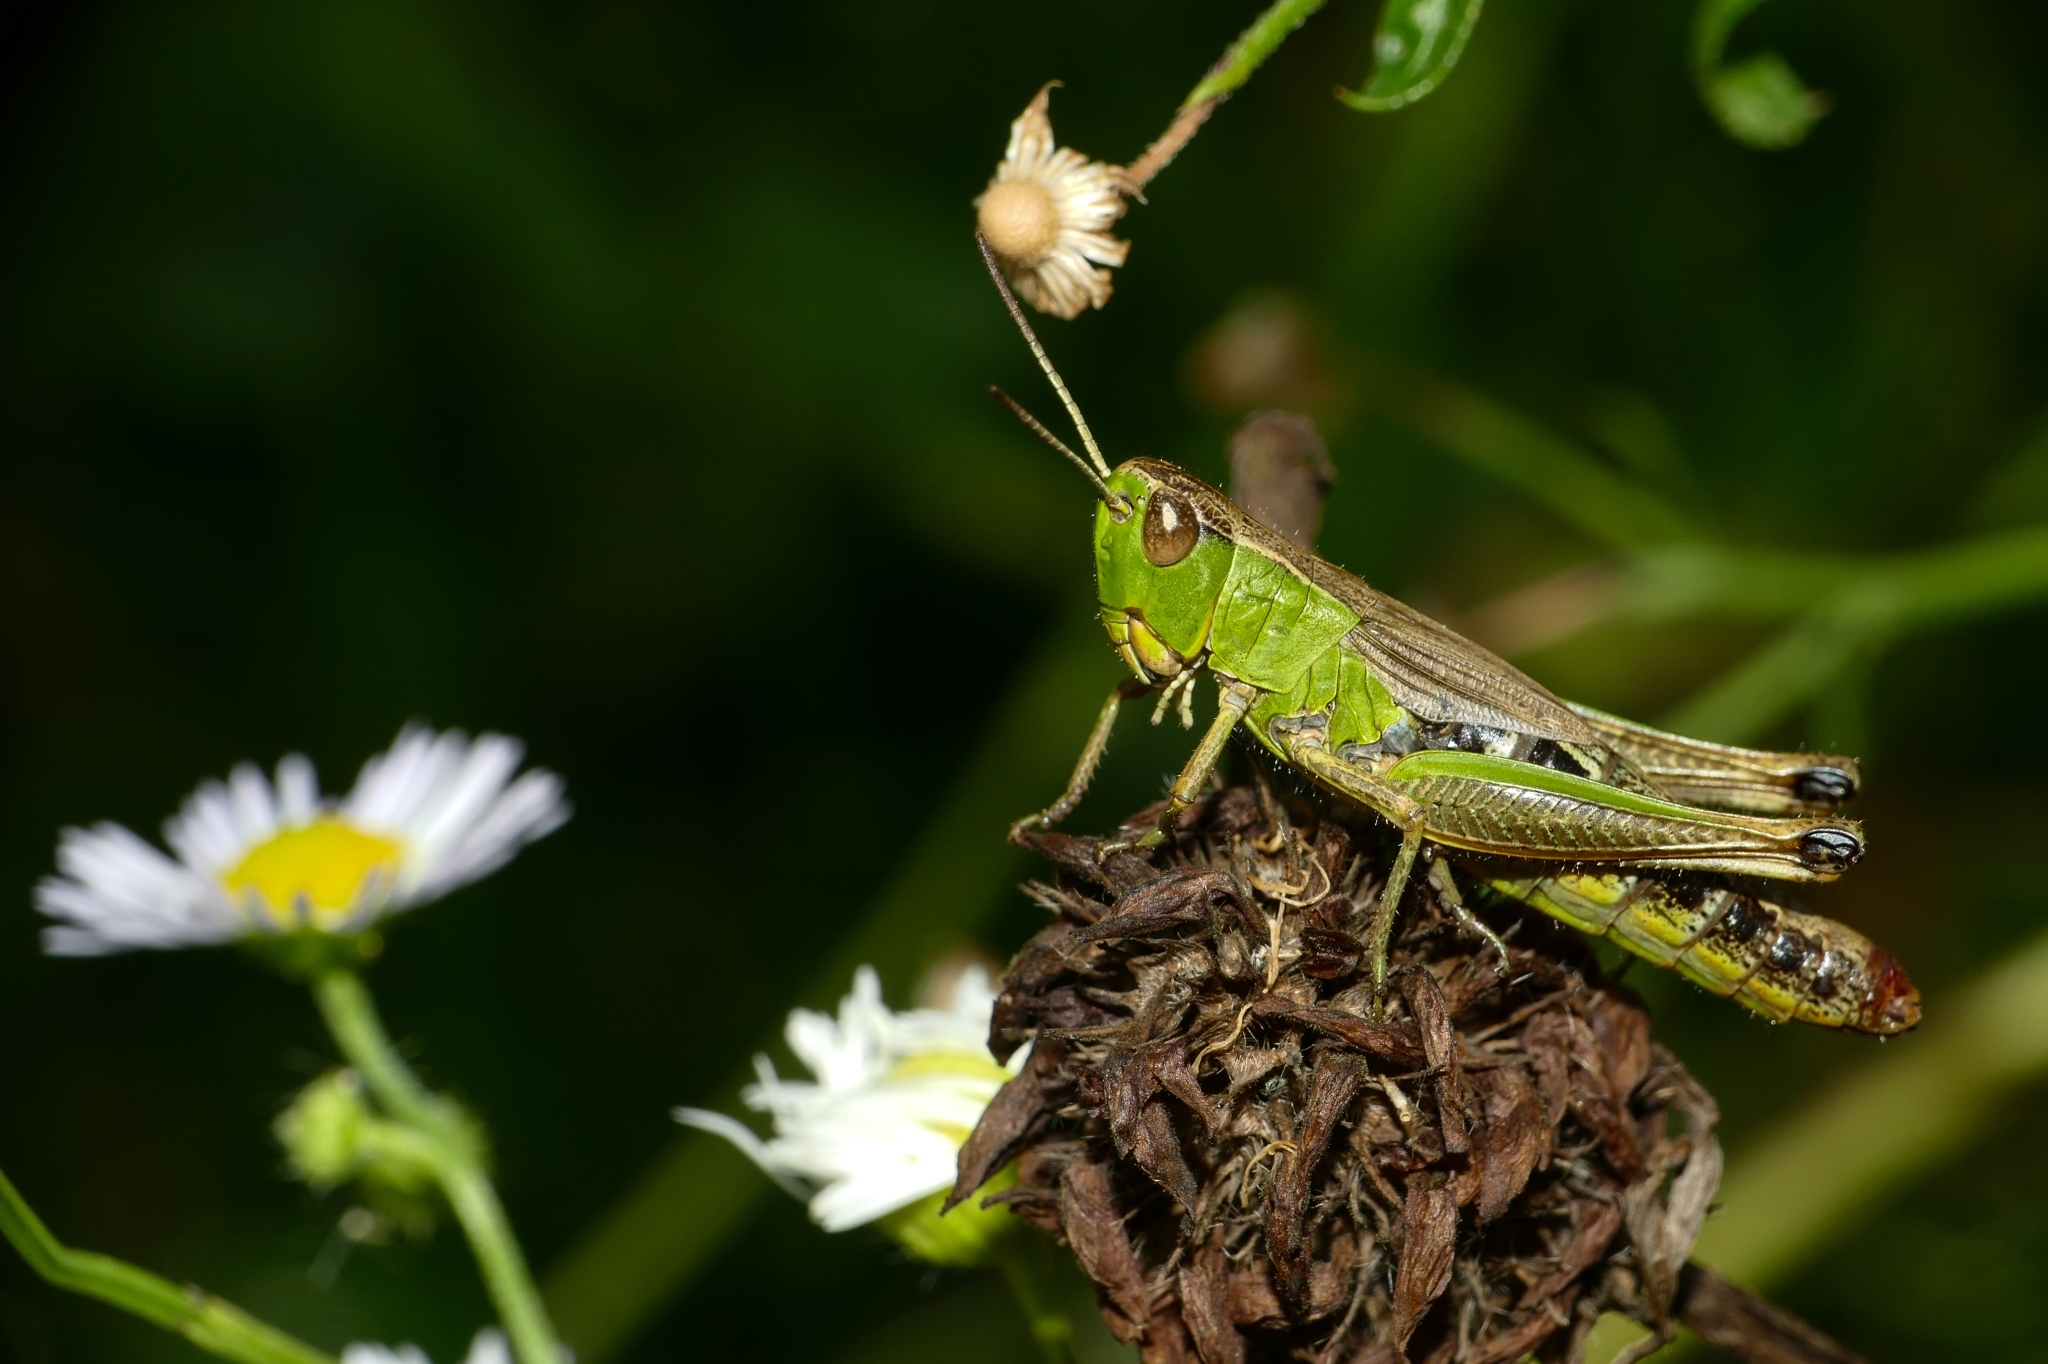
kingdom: Animalia
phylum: Arthropoda
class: Insecta
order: Orthoptera
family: Acrididae
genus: Pseudochorthippus
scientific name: Pseudochorthippus parallelus
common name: Meadow grasshopper
